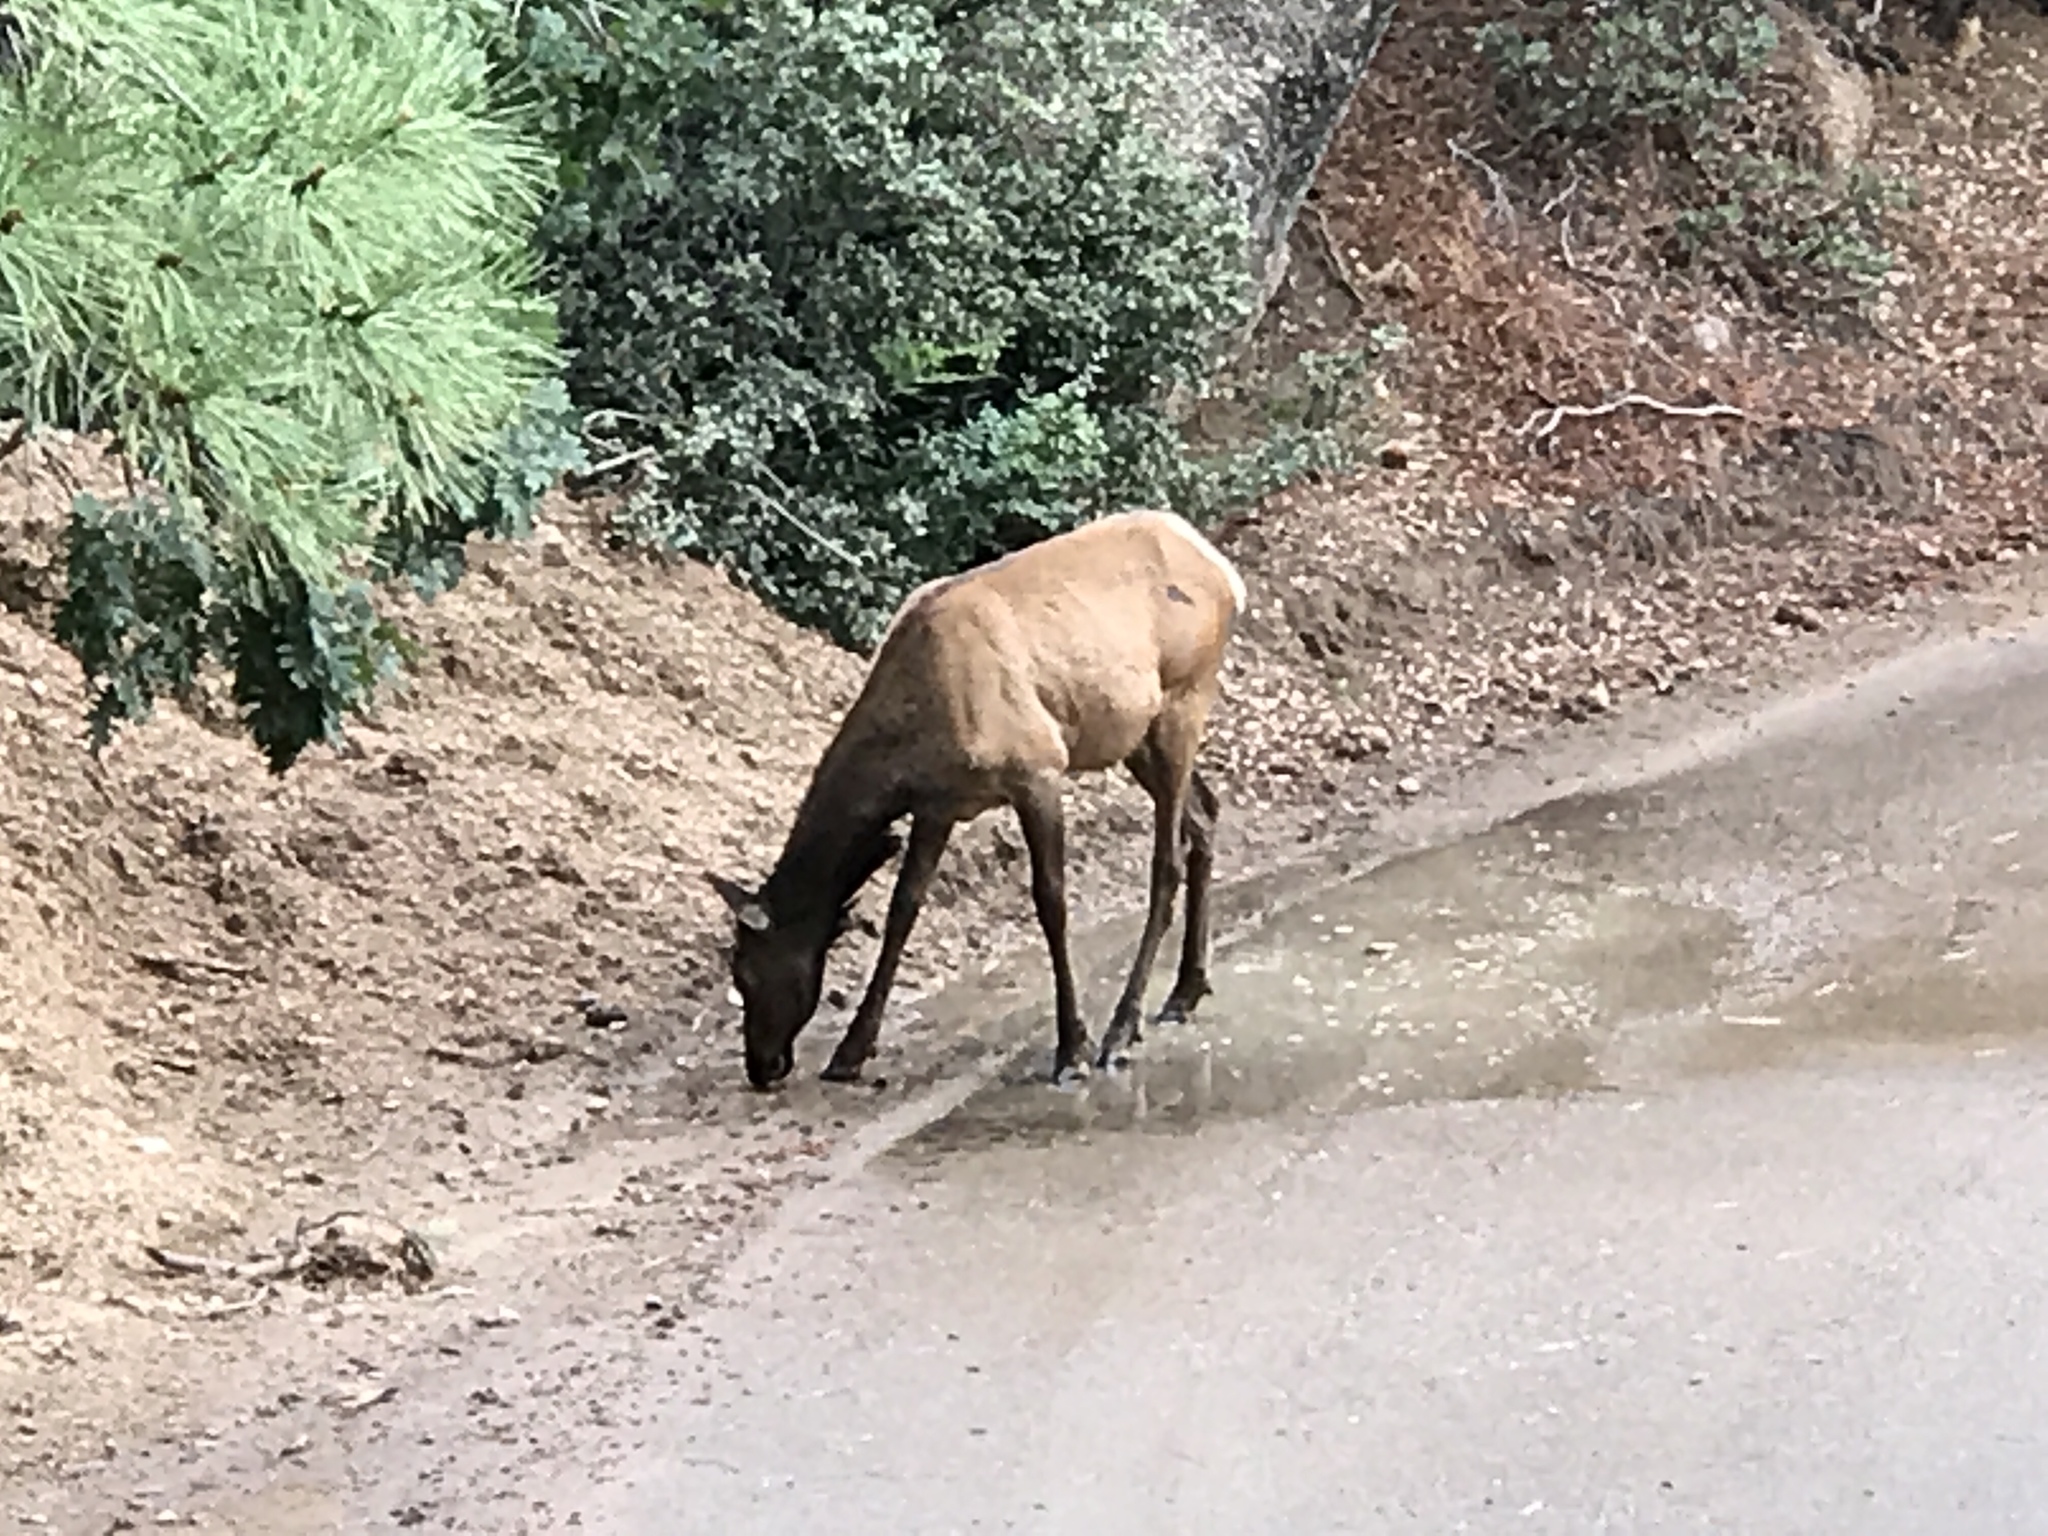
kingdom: Animalia
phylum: Chordata
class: Mammalia
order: Artiodactyla
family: Cervidae
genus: Cervus
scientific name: Cervus elaphus
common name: Red deer
